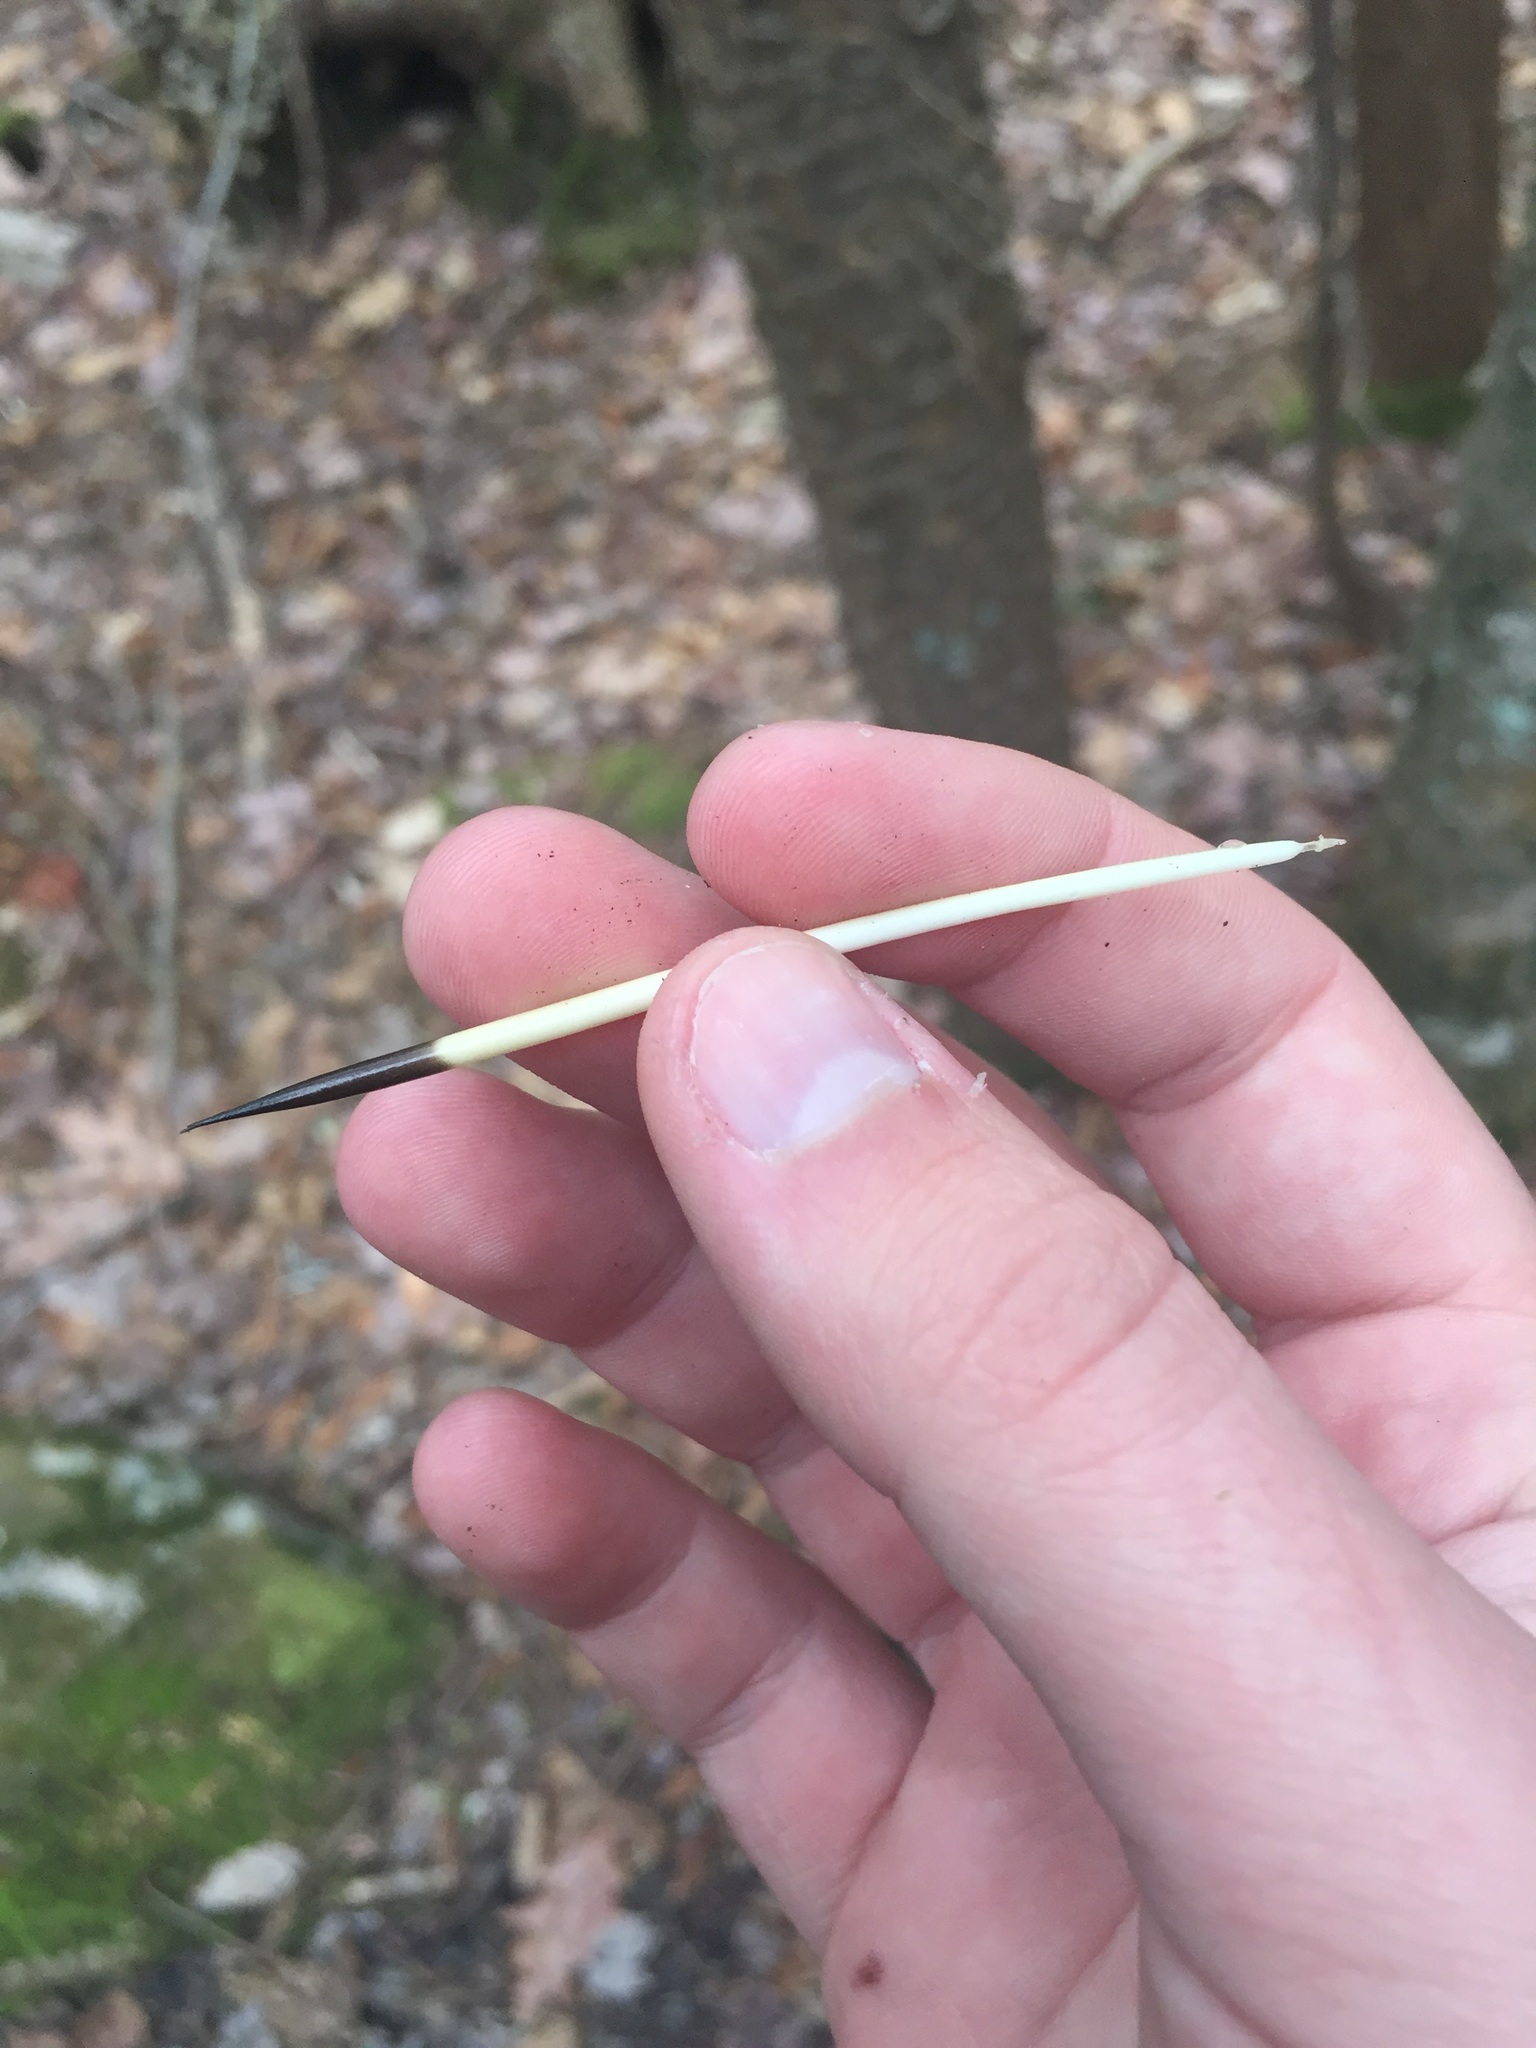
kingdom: Animalia
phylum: Chordata
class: Mammalia
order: Rodentia
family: Erethizontidae
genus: Erethizon
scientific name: Erethizon dorsatus
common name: North american porcupine
